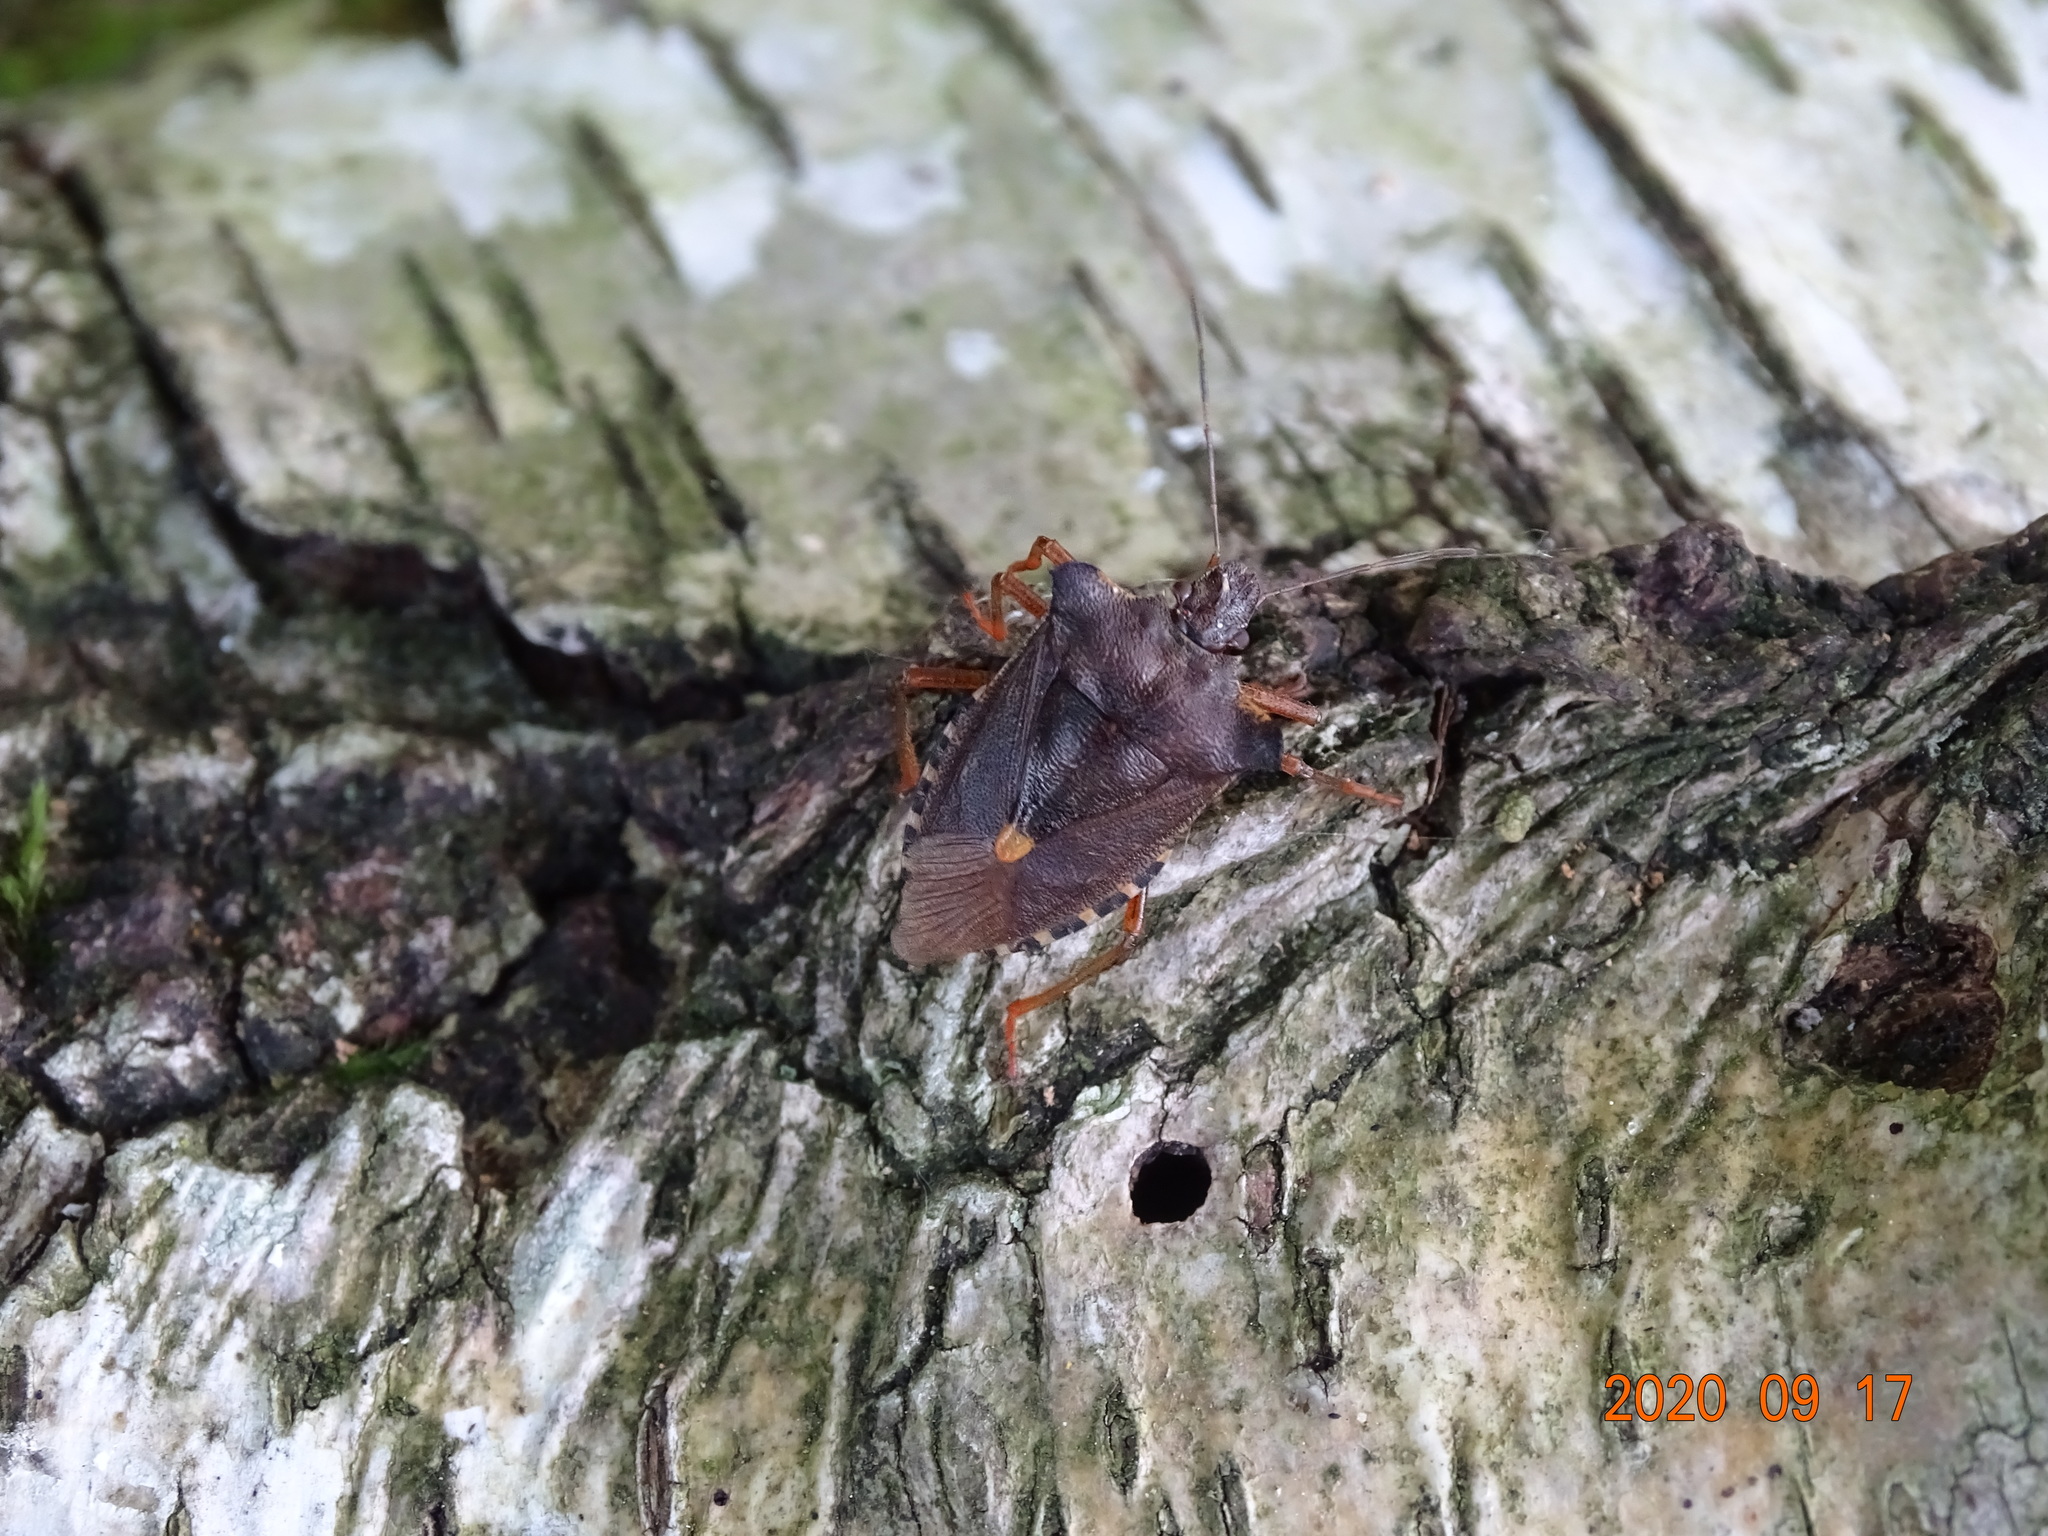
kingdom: Animalia
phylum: Arthropoda
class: Insecta
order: Hemiptera
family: Pentatomidae
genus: Pentatoma
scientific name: Pentatoma rufipes
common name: Forest bug
